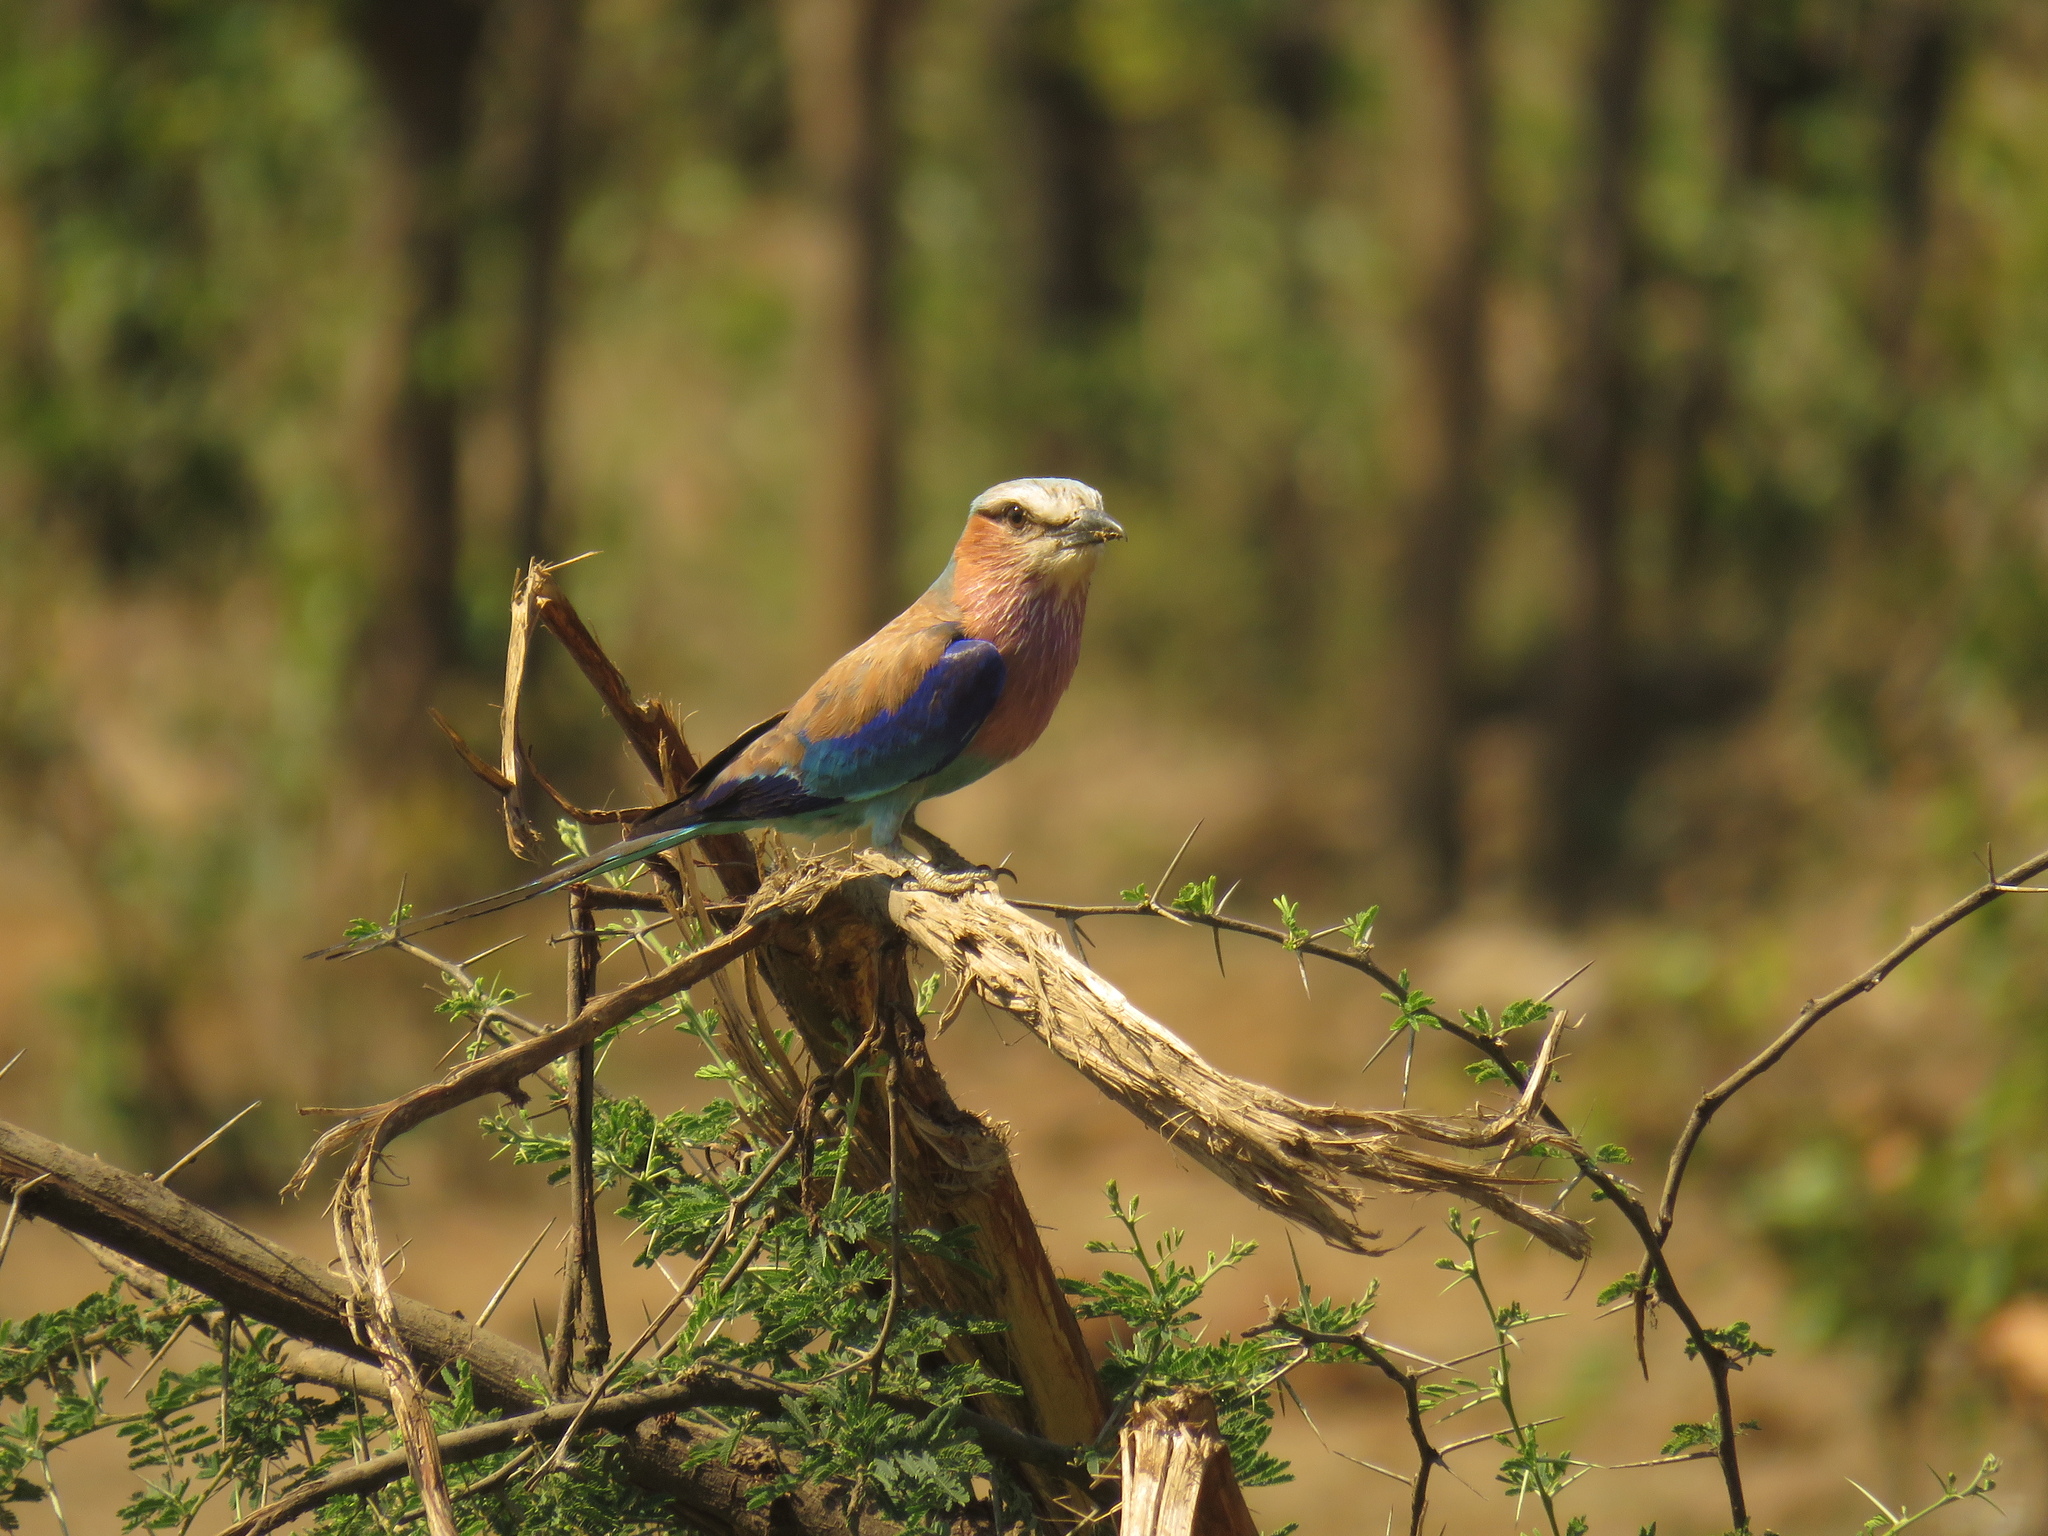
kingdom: Animalia
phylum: Chordata
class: Aves
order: Coraciiformes
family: Coraciidae
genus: Coracias
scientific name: Coracias caudatus
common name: Lilac-breasted roller
